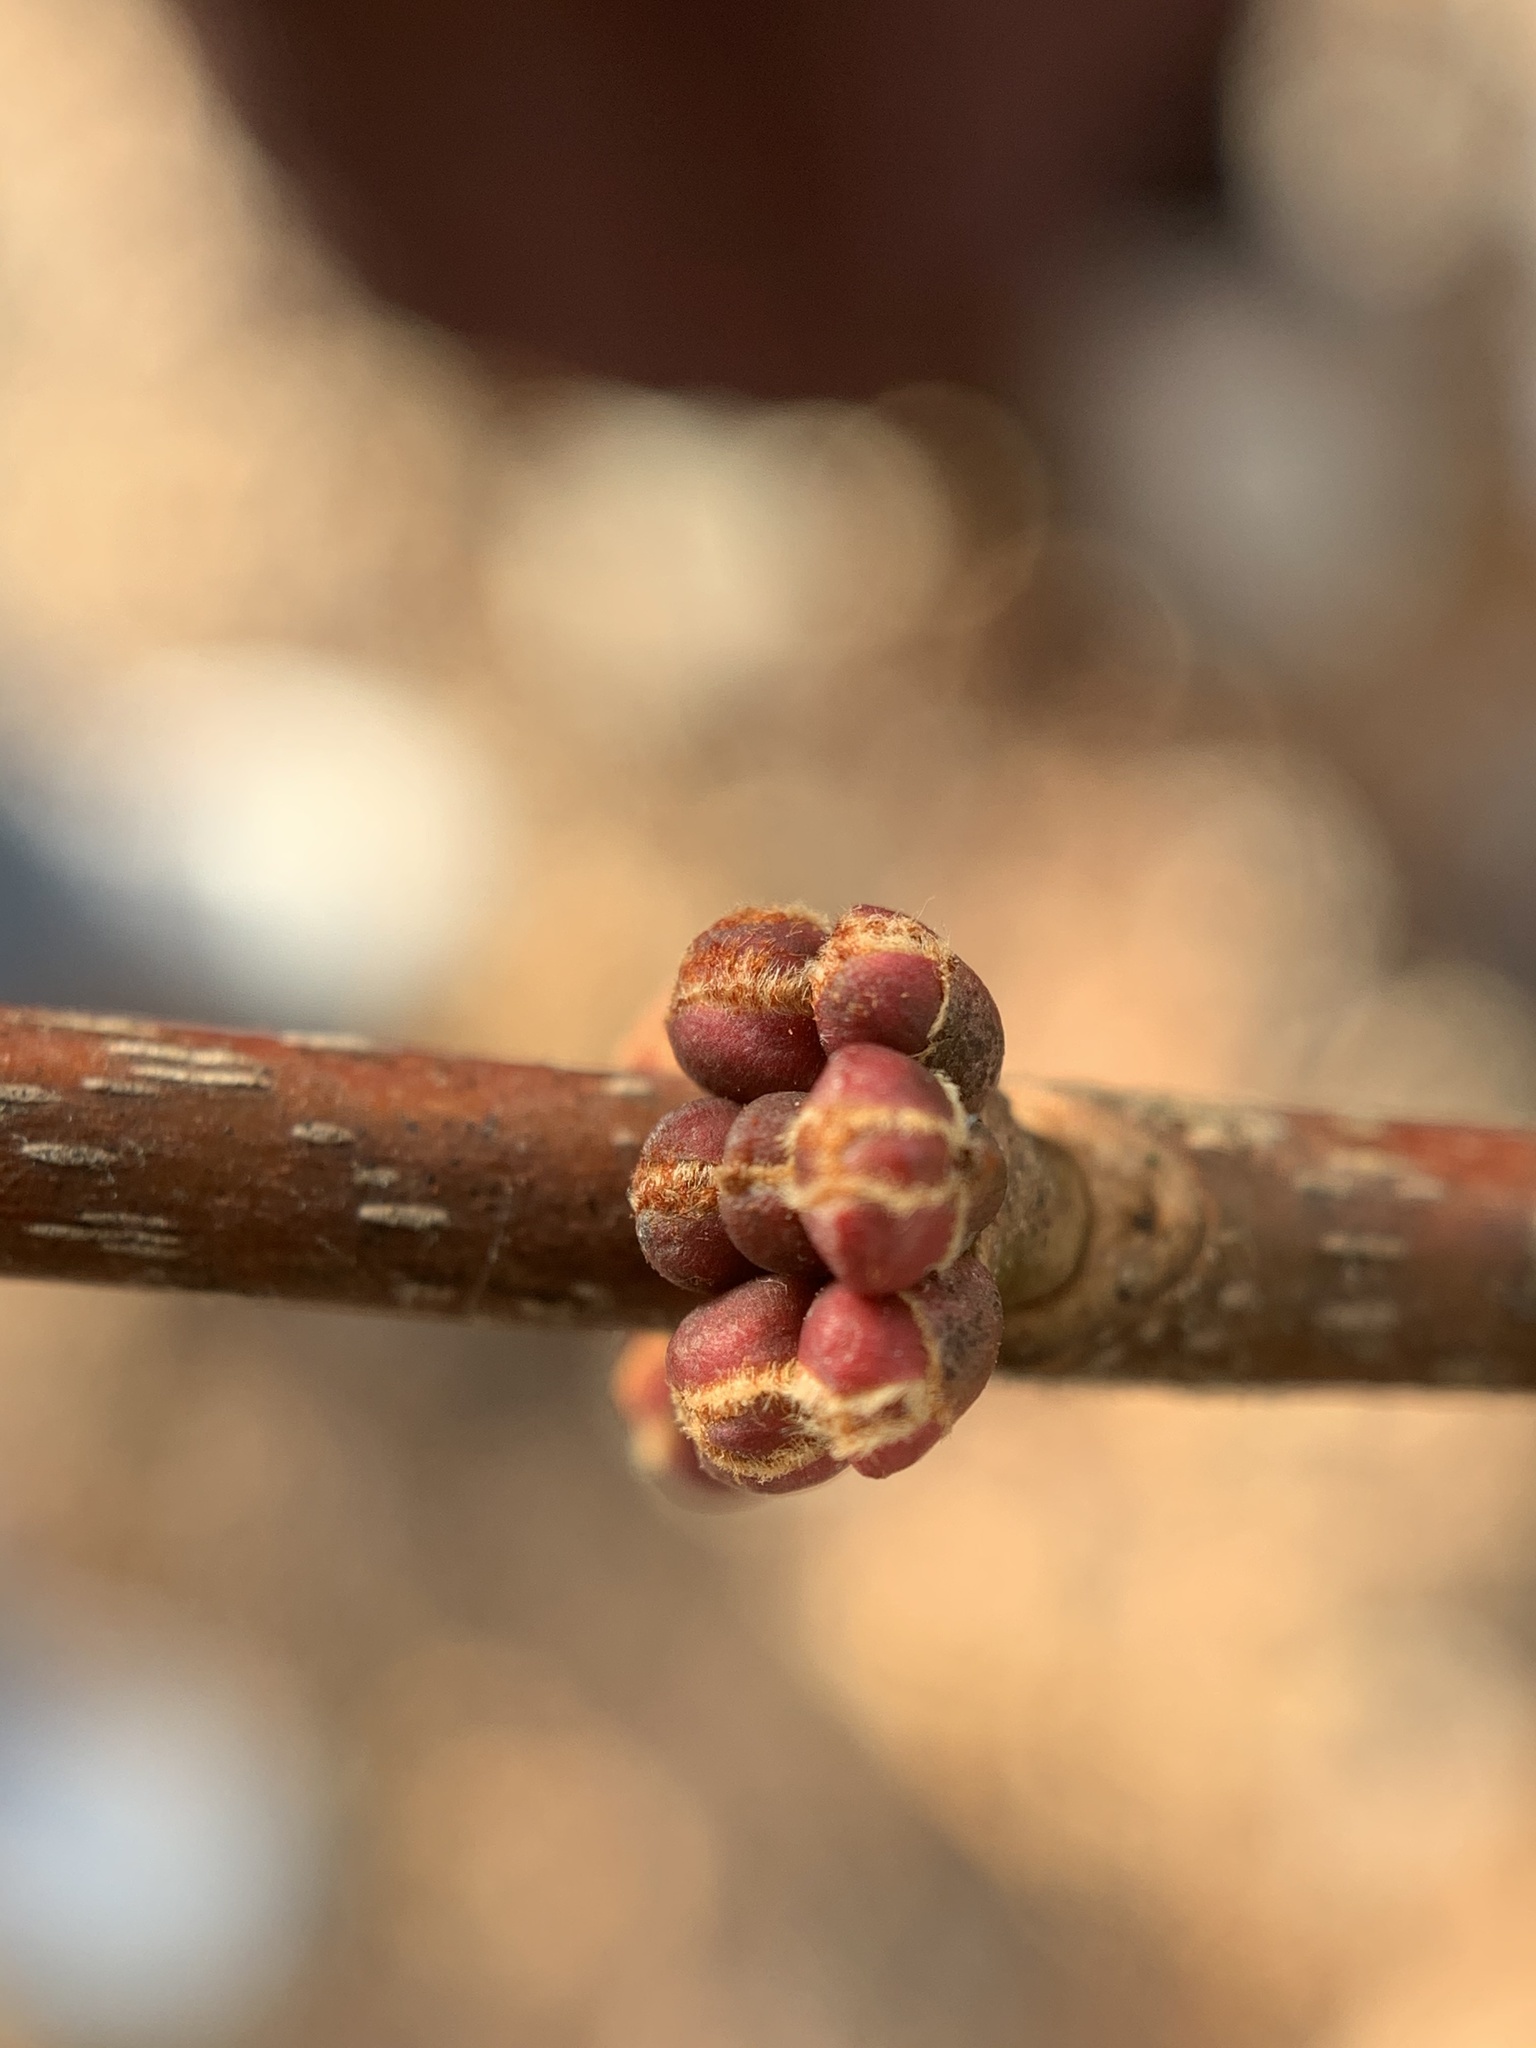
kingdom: Plantae
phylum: Tracheophyta
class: Magnoliopsida
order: Sapindales
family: Sapindaceae
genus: Acer
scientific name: Acer rubrum
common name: Red maple
